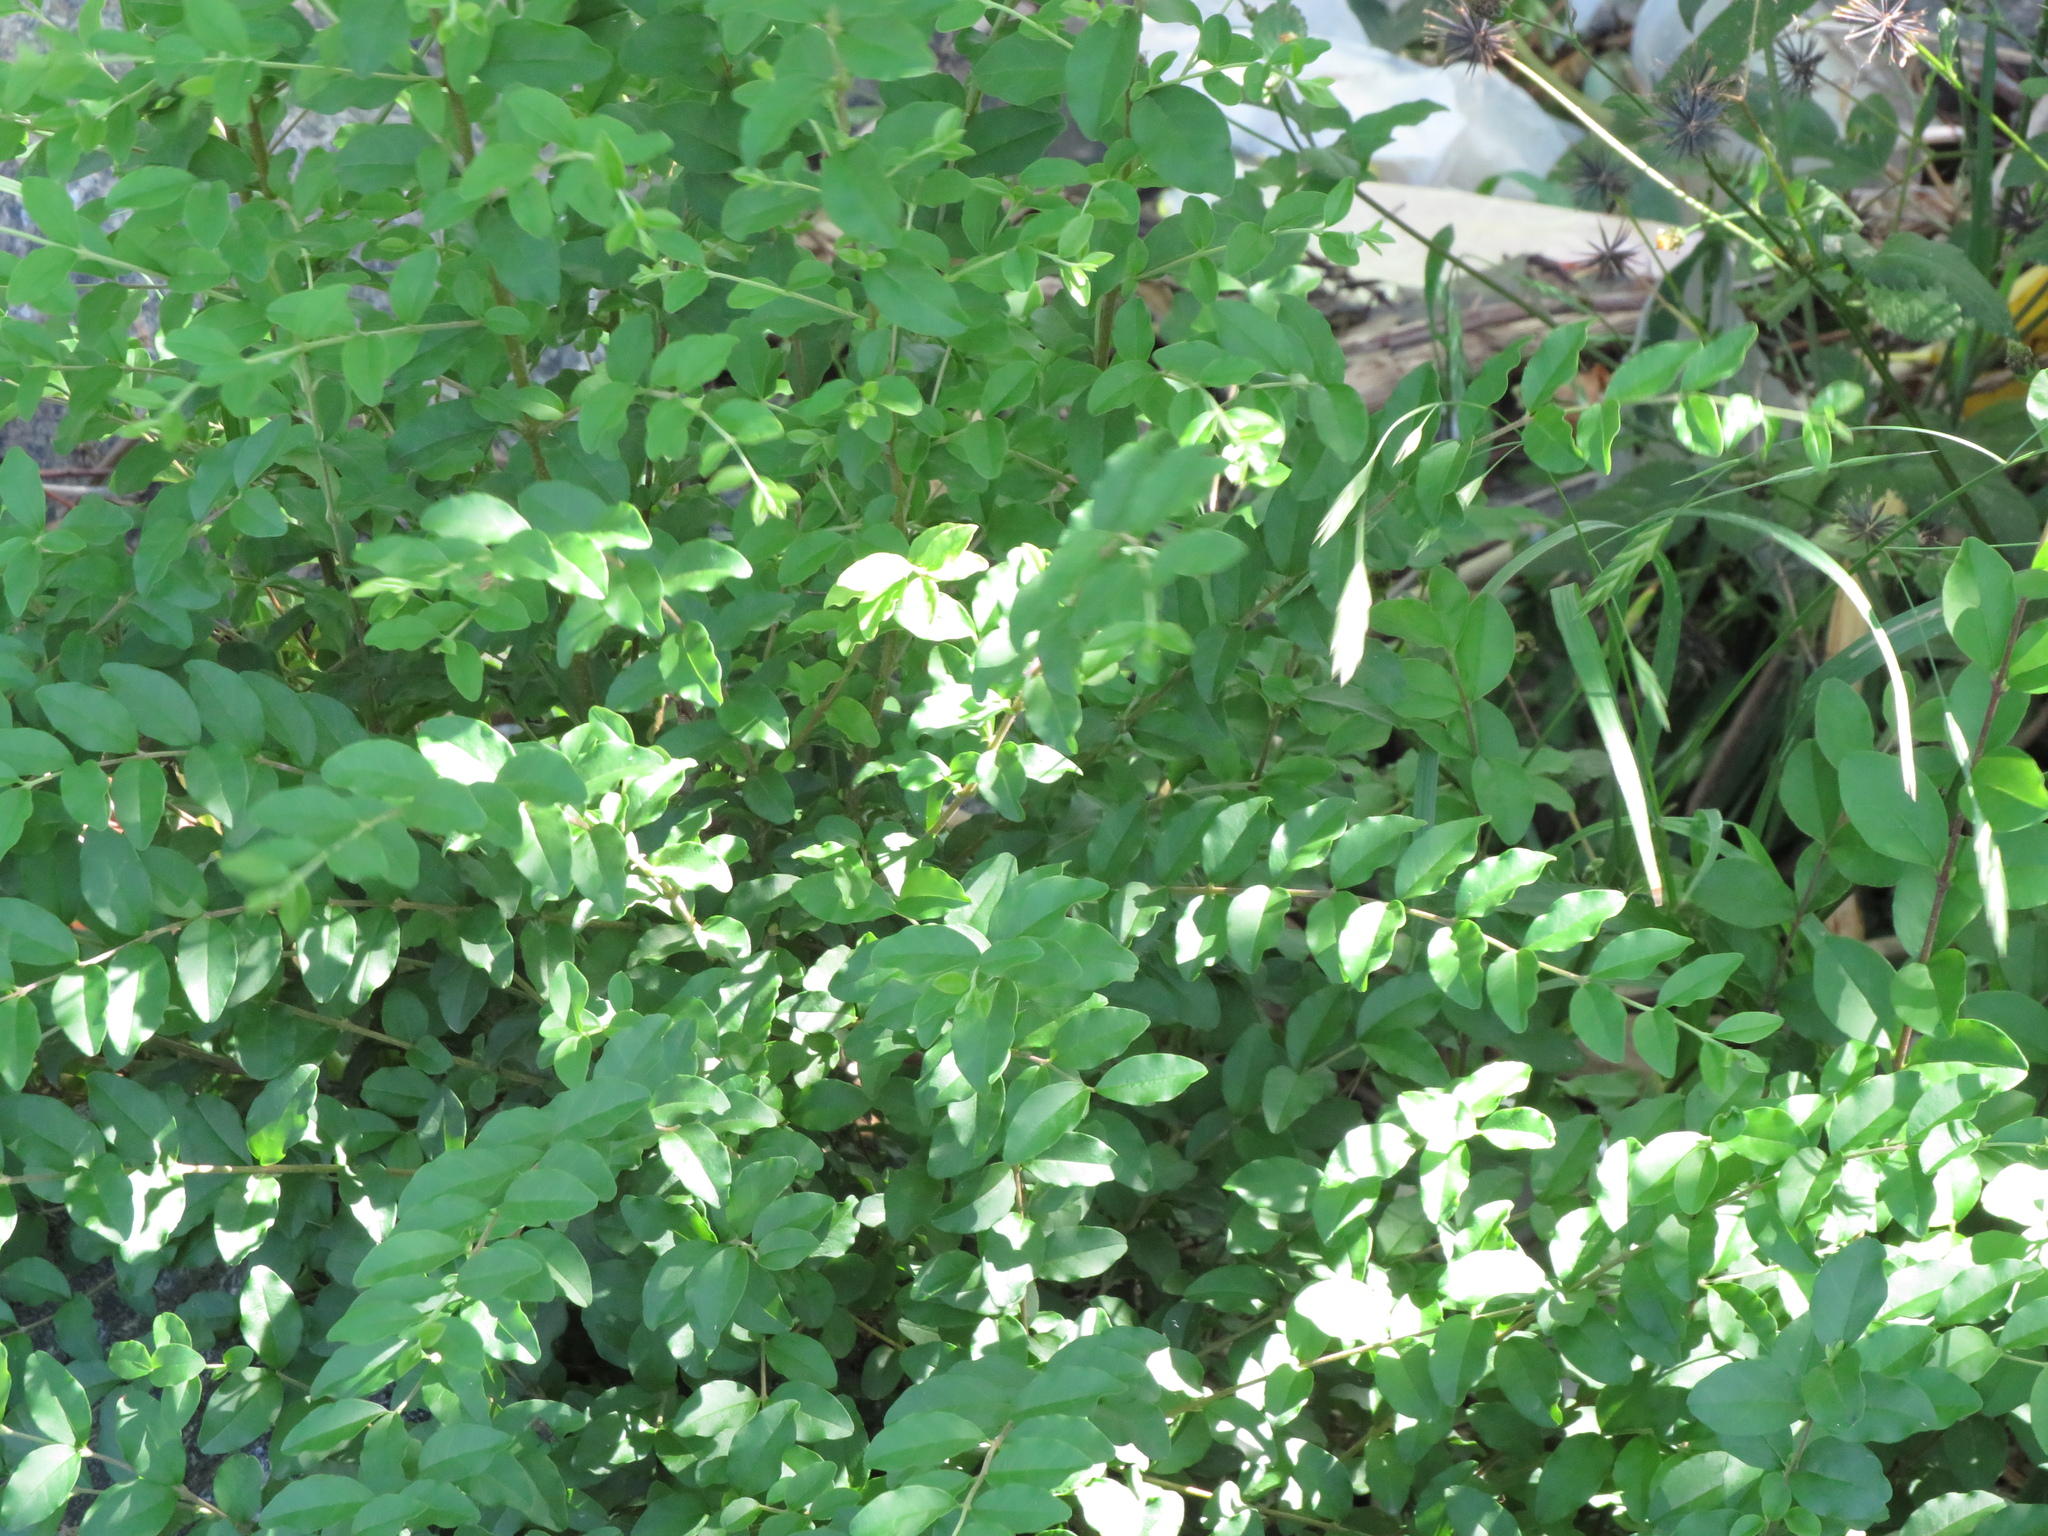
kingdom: Plantae
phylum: Tracheophyta
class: Magnoliopsida
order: Lamiales
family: Oleaceae
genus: Ligustrum
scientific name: Ligustrum sinense
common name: Chinese privet
